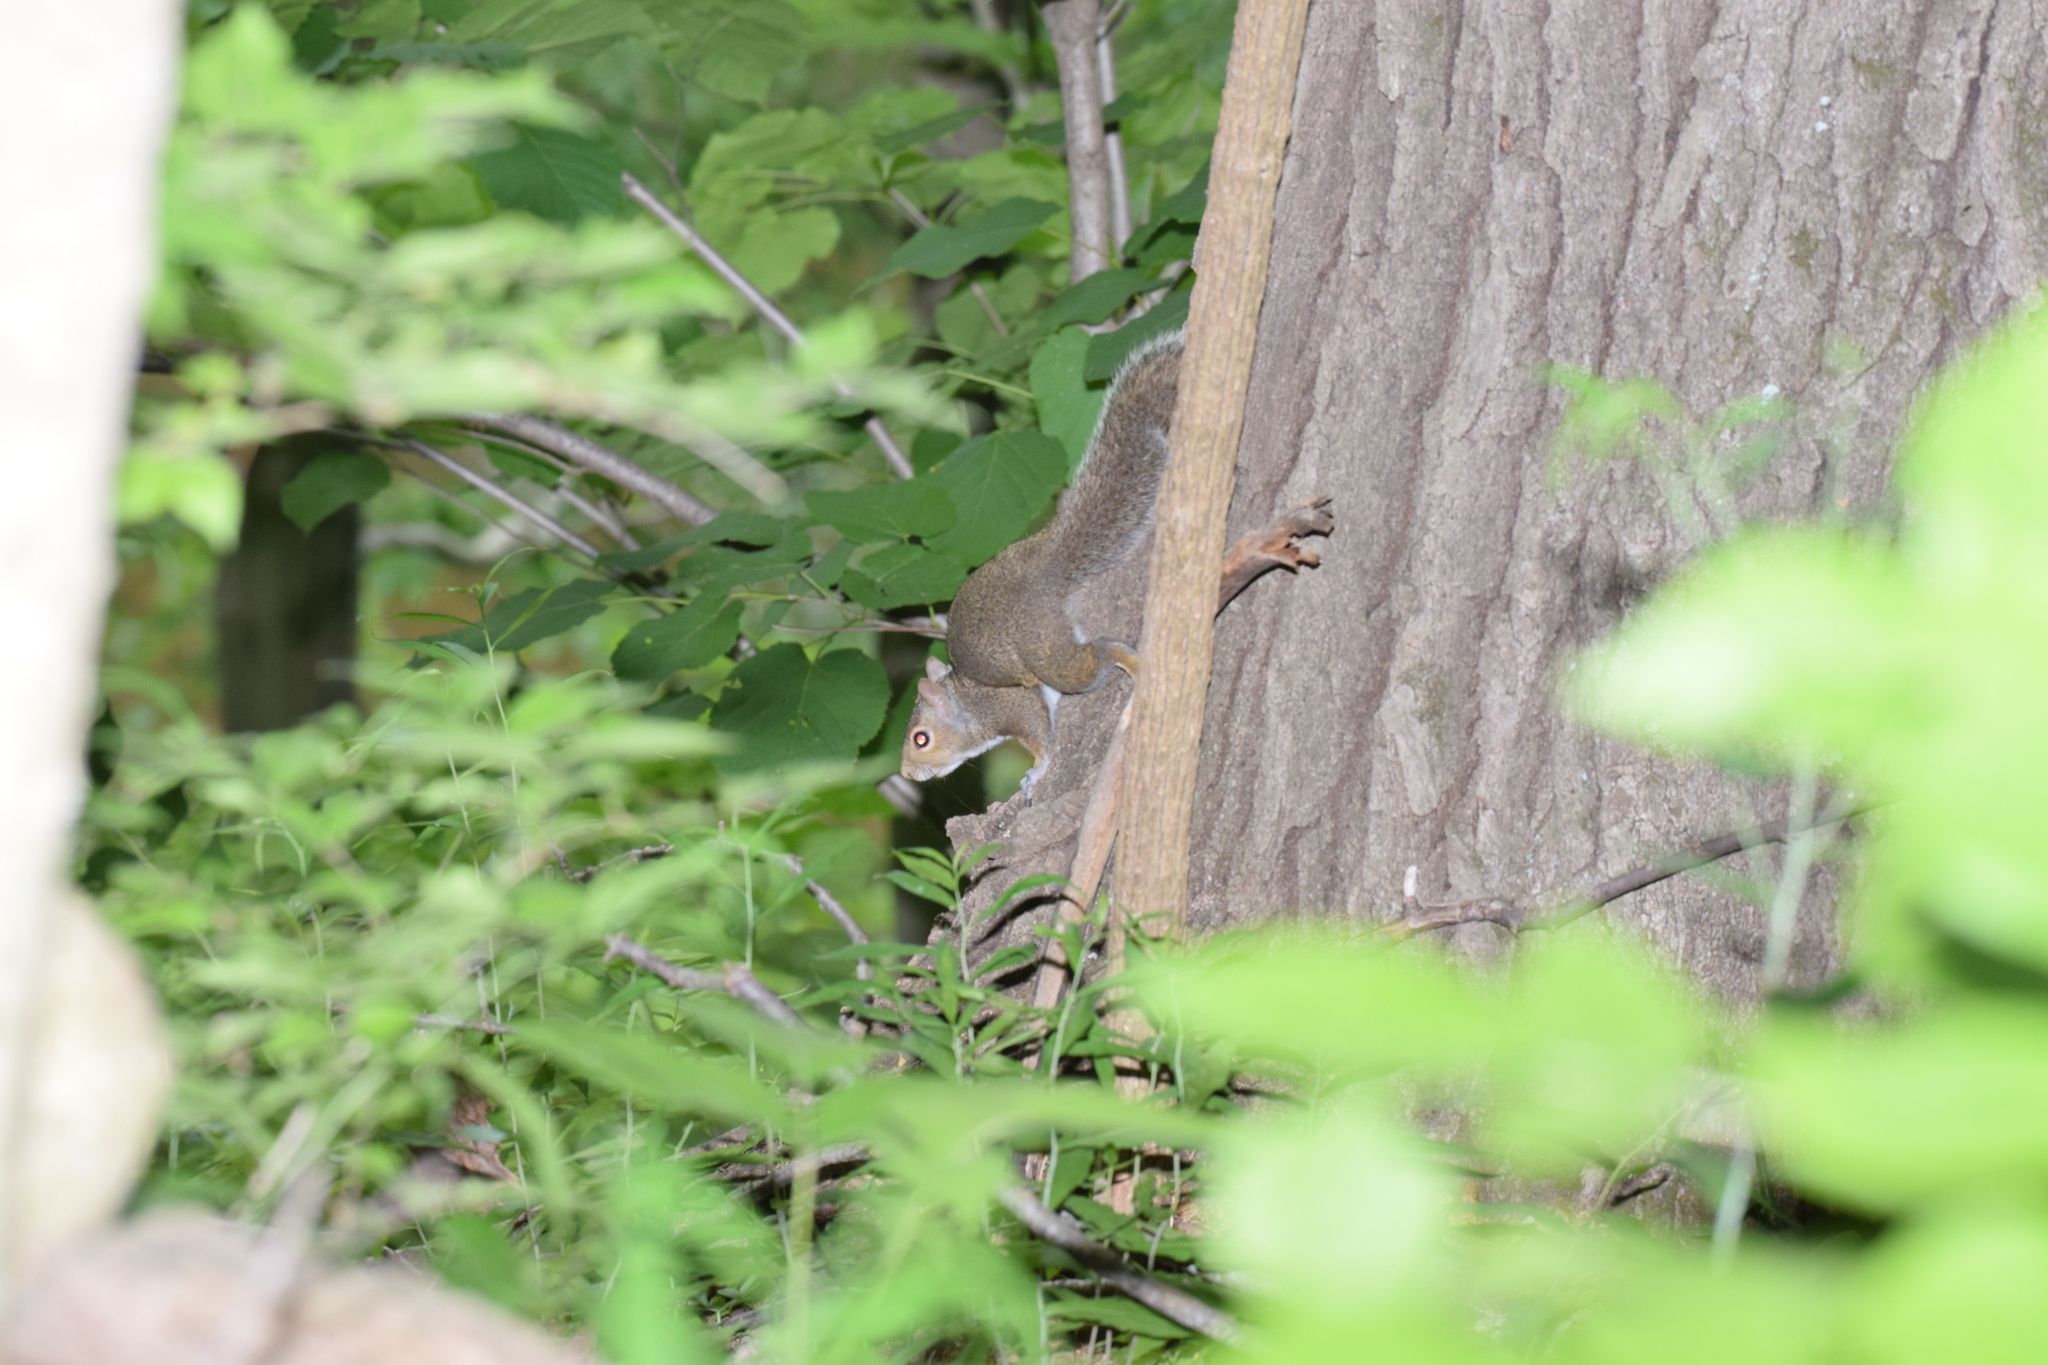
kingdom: Animalia
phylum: Chordata
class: Mammalia
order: Rodentia
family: Sciuridae
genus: Sciurus
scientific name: Sciurus carolinensis
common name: Eastern gray squirrel
